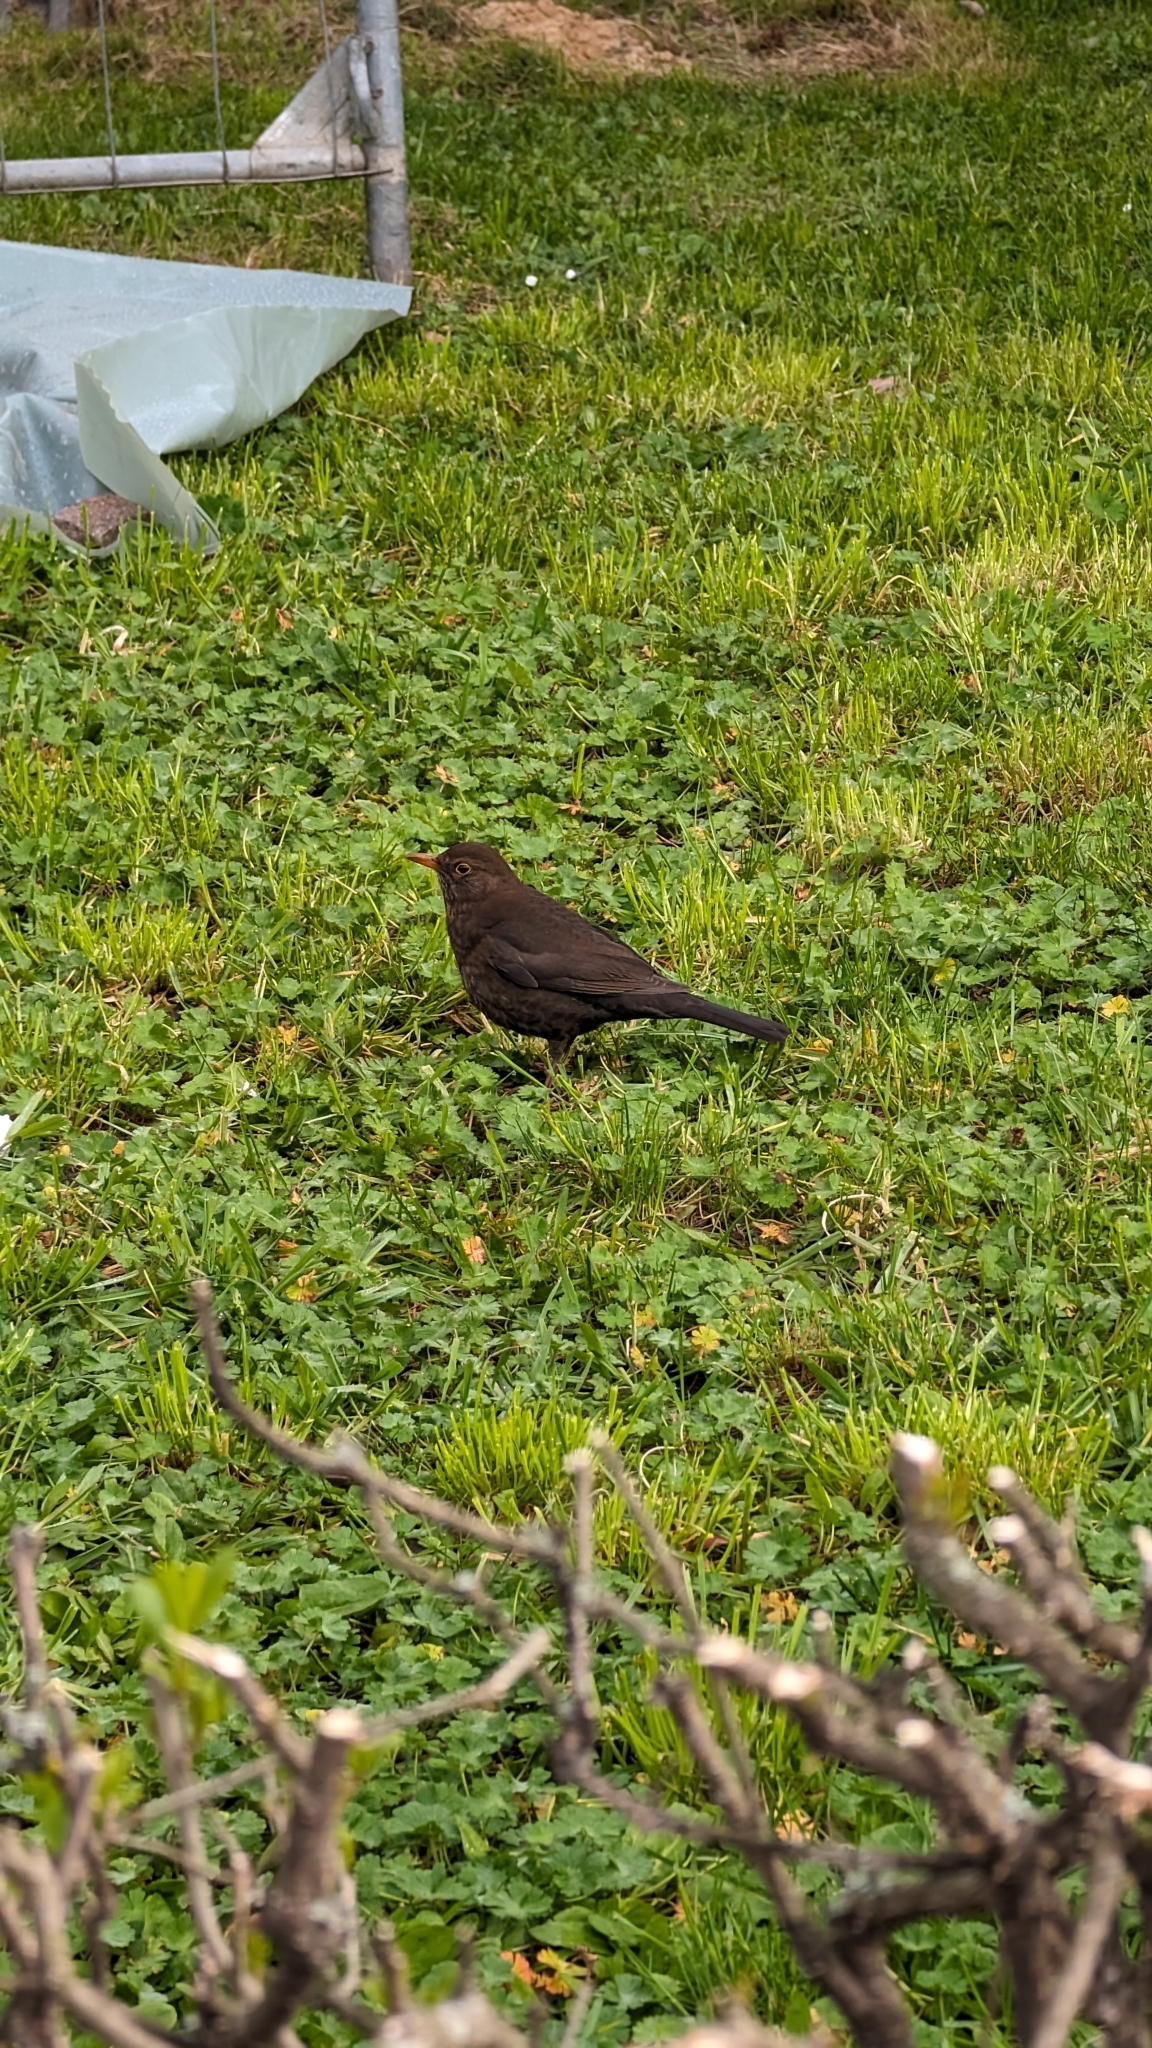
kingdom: Animalia
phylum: Chordata
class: Aves
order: Passeriformes
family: Turdidae
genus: Turdus
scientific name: Turdus merula
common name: Common blackbird
